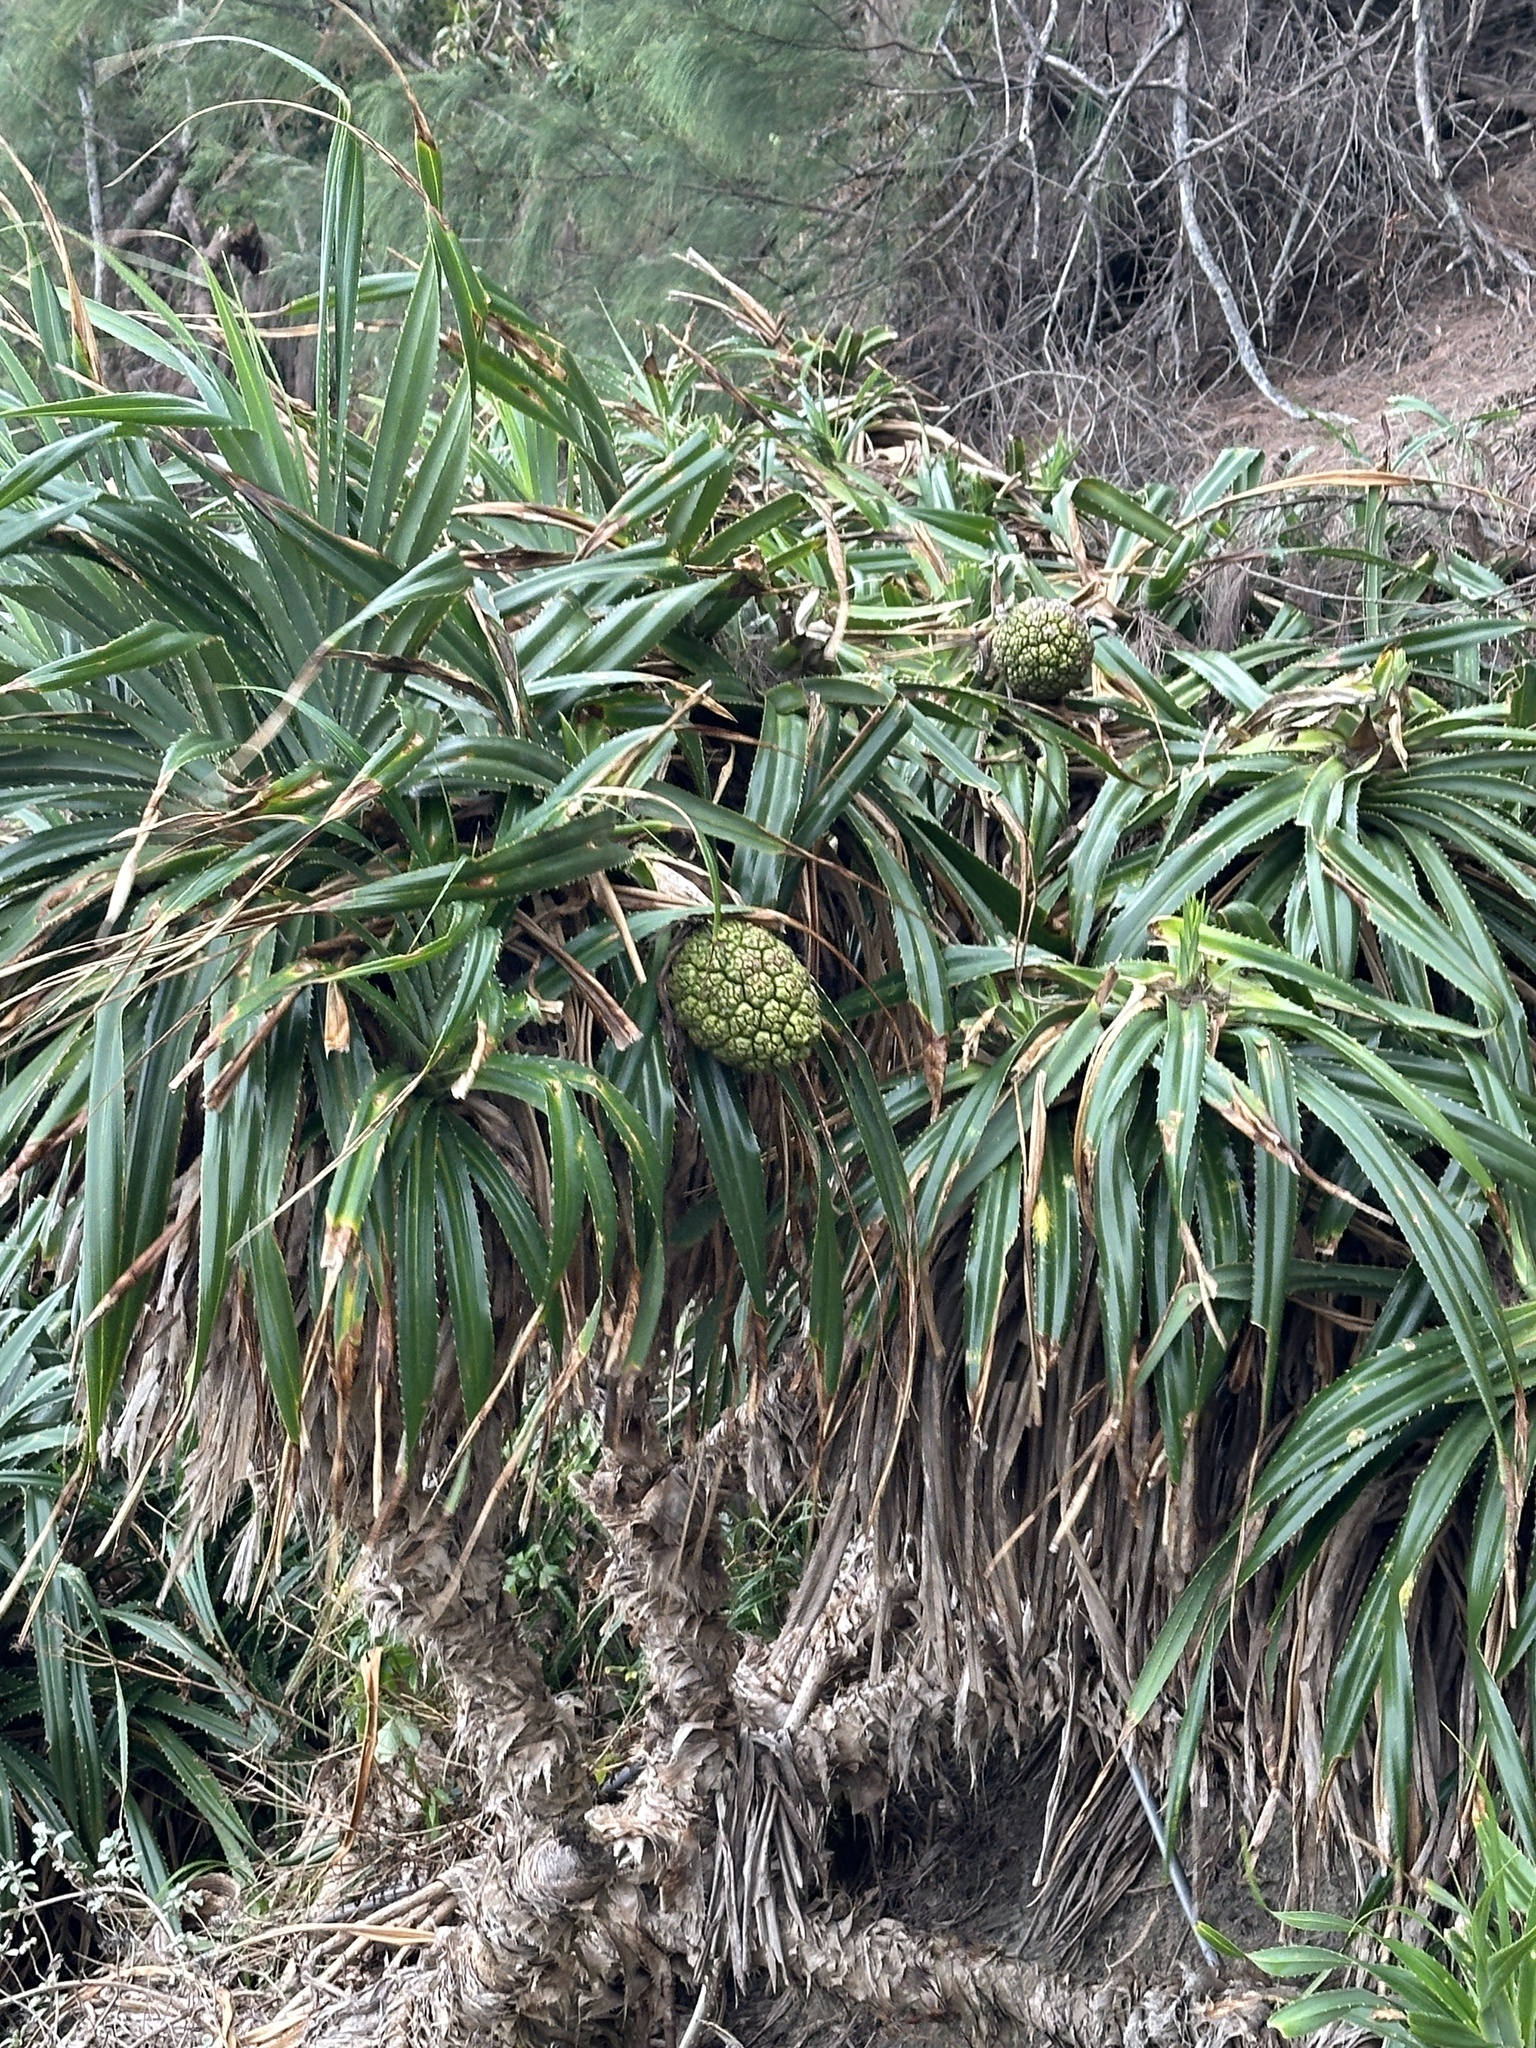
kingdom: Plantae
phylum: Tracheophyta
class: Liliopsida
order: Pandanales
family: Pandanaceae
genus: Pandanus
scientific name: Pandanus odorifer
